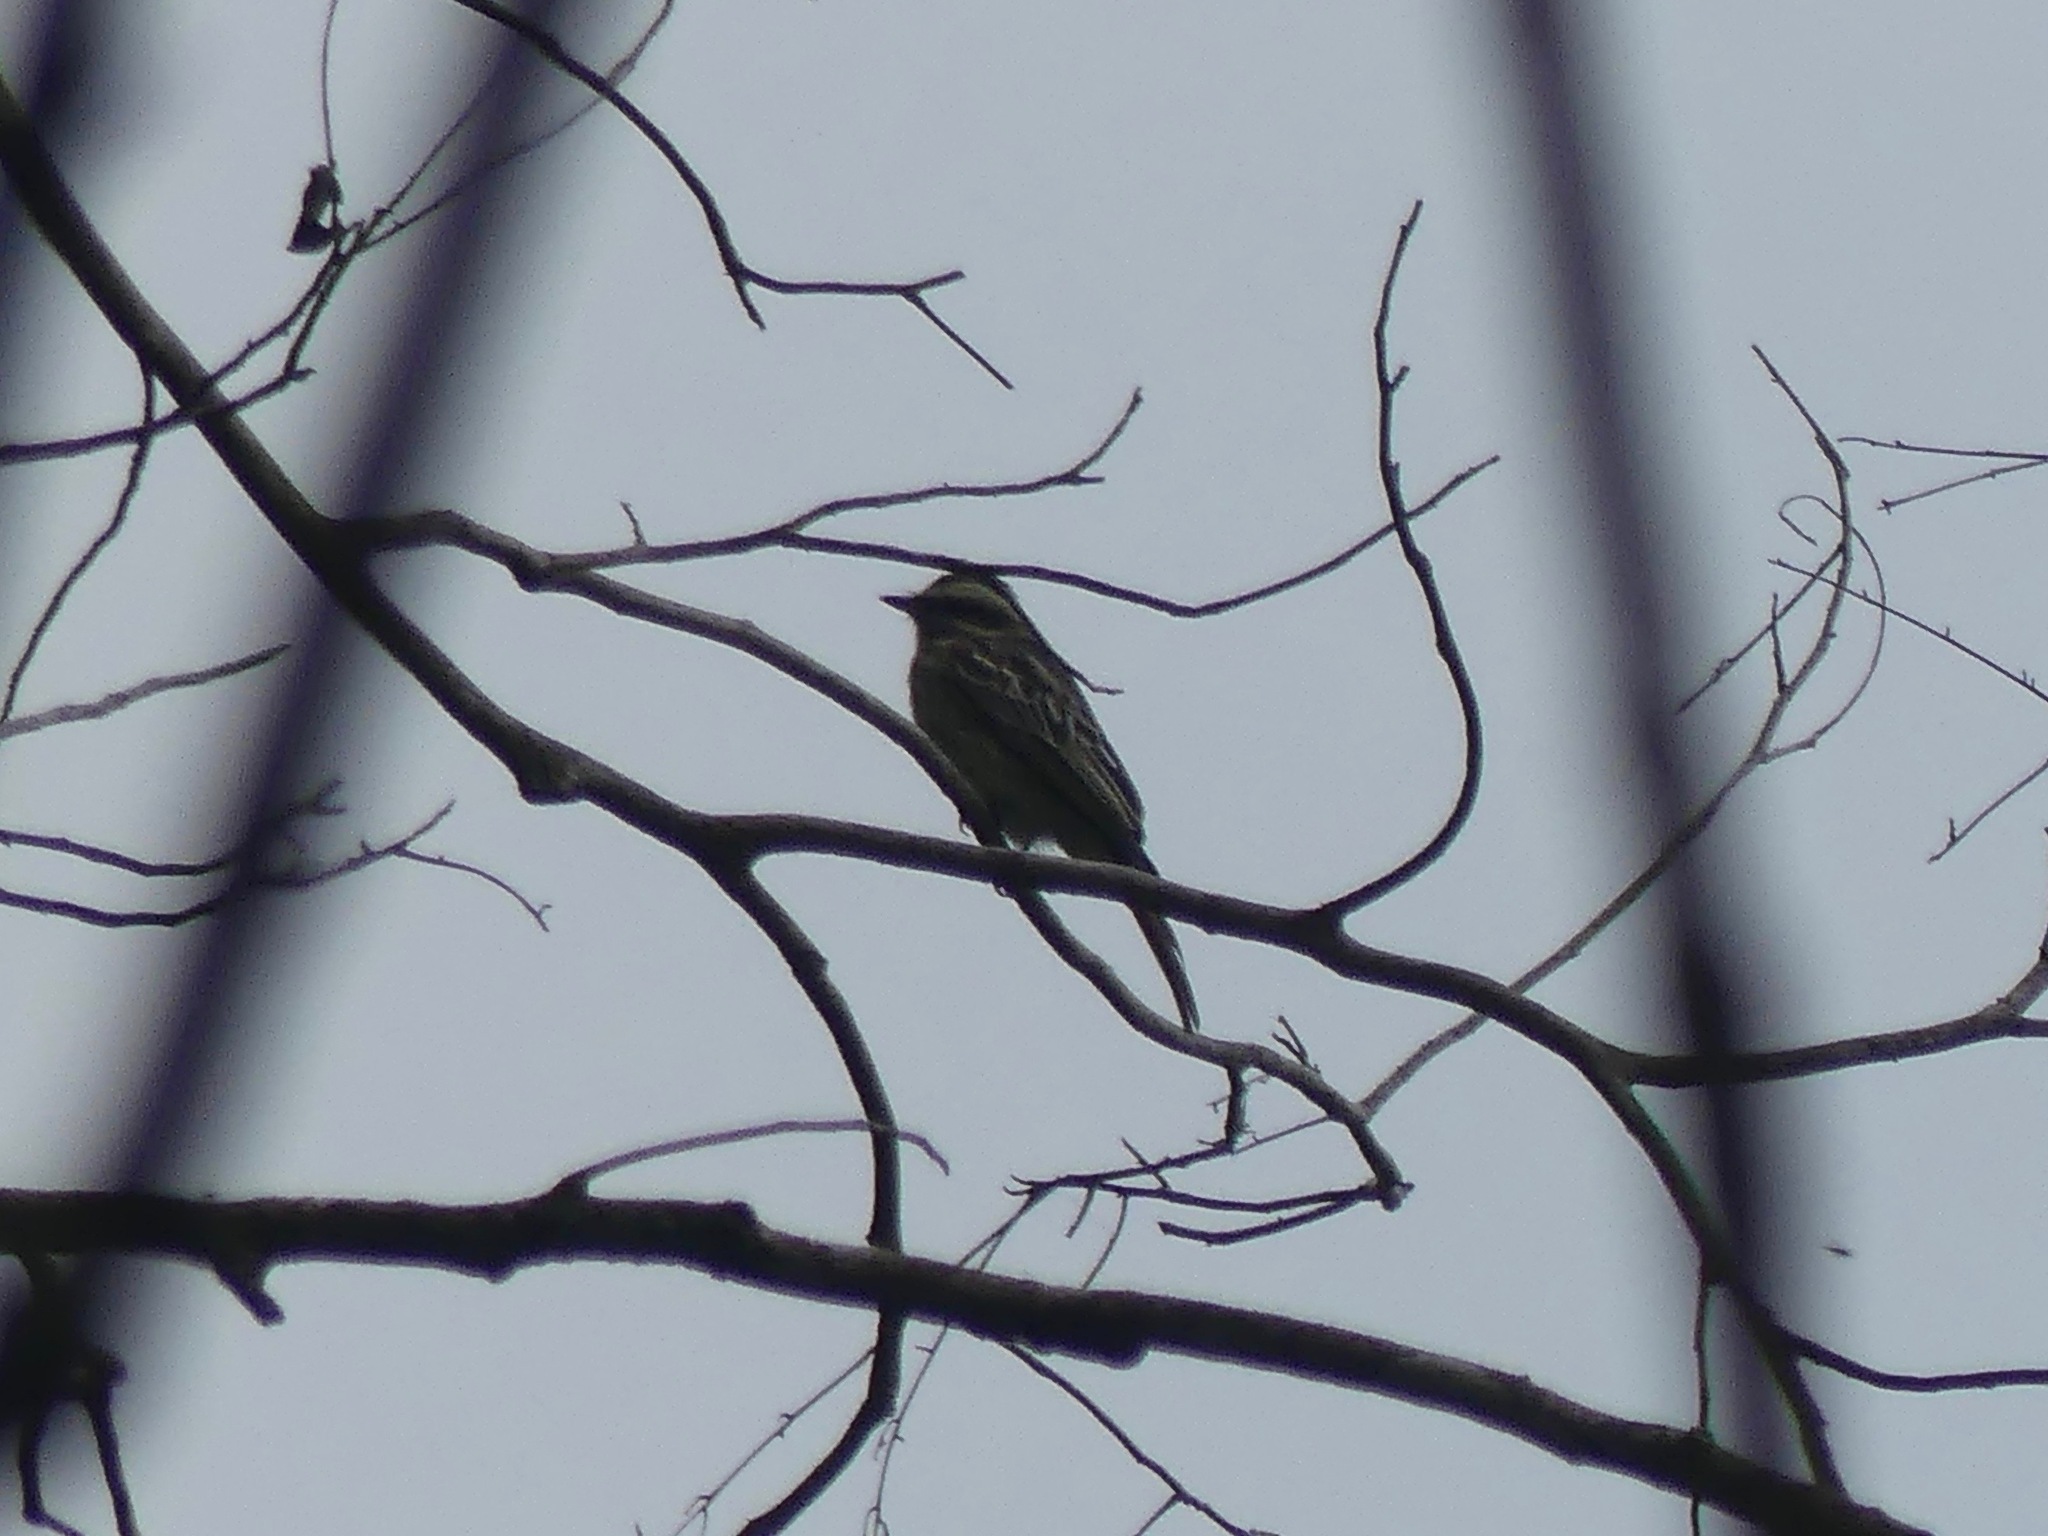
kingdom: Animalia
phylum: Chordata
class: Aves
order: Passeriformes
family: Tyrannidae
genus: Empidonomus
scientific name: Empidonomus varius
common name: Variegated flycatcher
